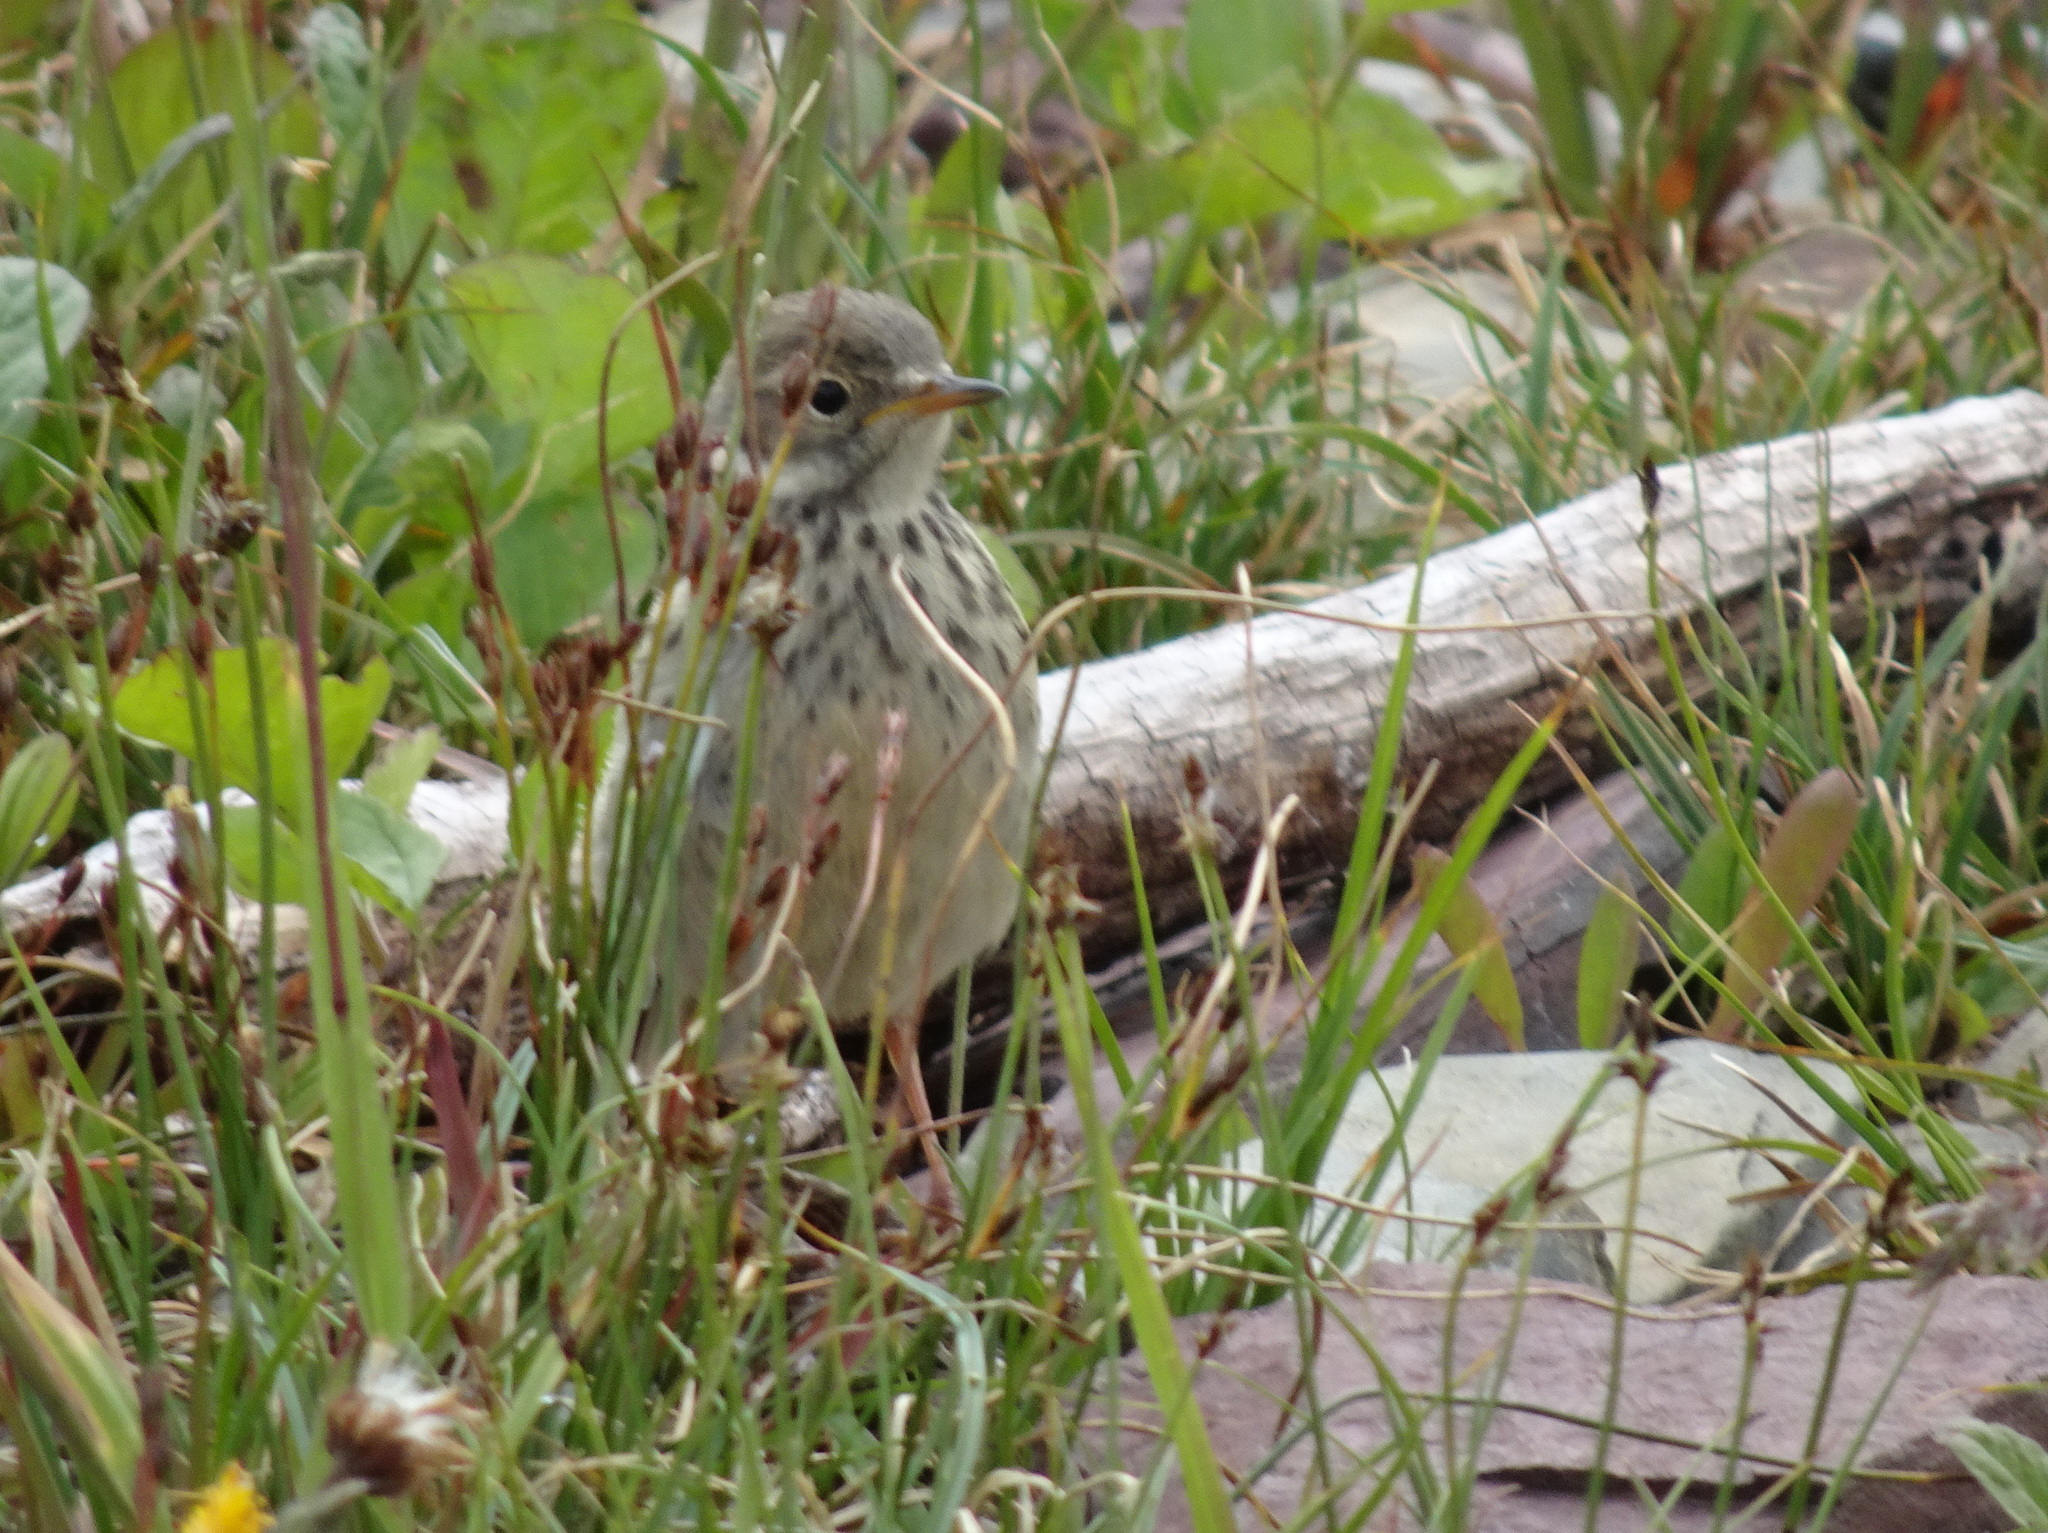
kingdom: Animalia
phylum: Chordata
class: Aves
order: Passeriformes
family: Motacillidae
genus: Anthus
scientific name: Anthus rubescens
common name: Buff-bellied pipit
